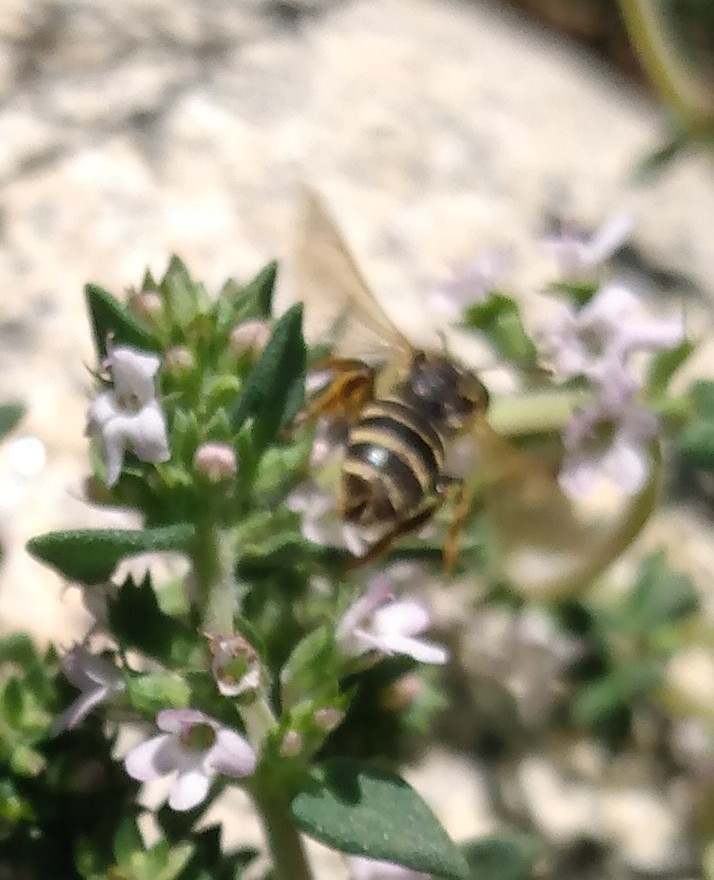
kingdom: Animalia
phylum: Arthropoda
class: Insecta
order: Hymenoptera
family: Halictidae
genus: Halictus
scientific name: Halictus ligatus
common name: Ligated furrow bee
